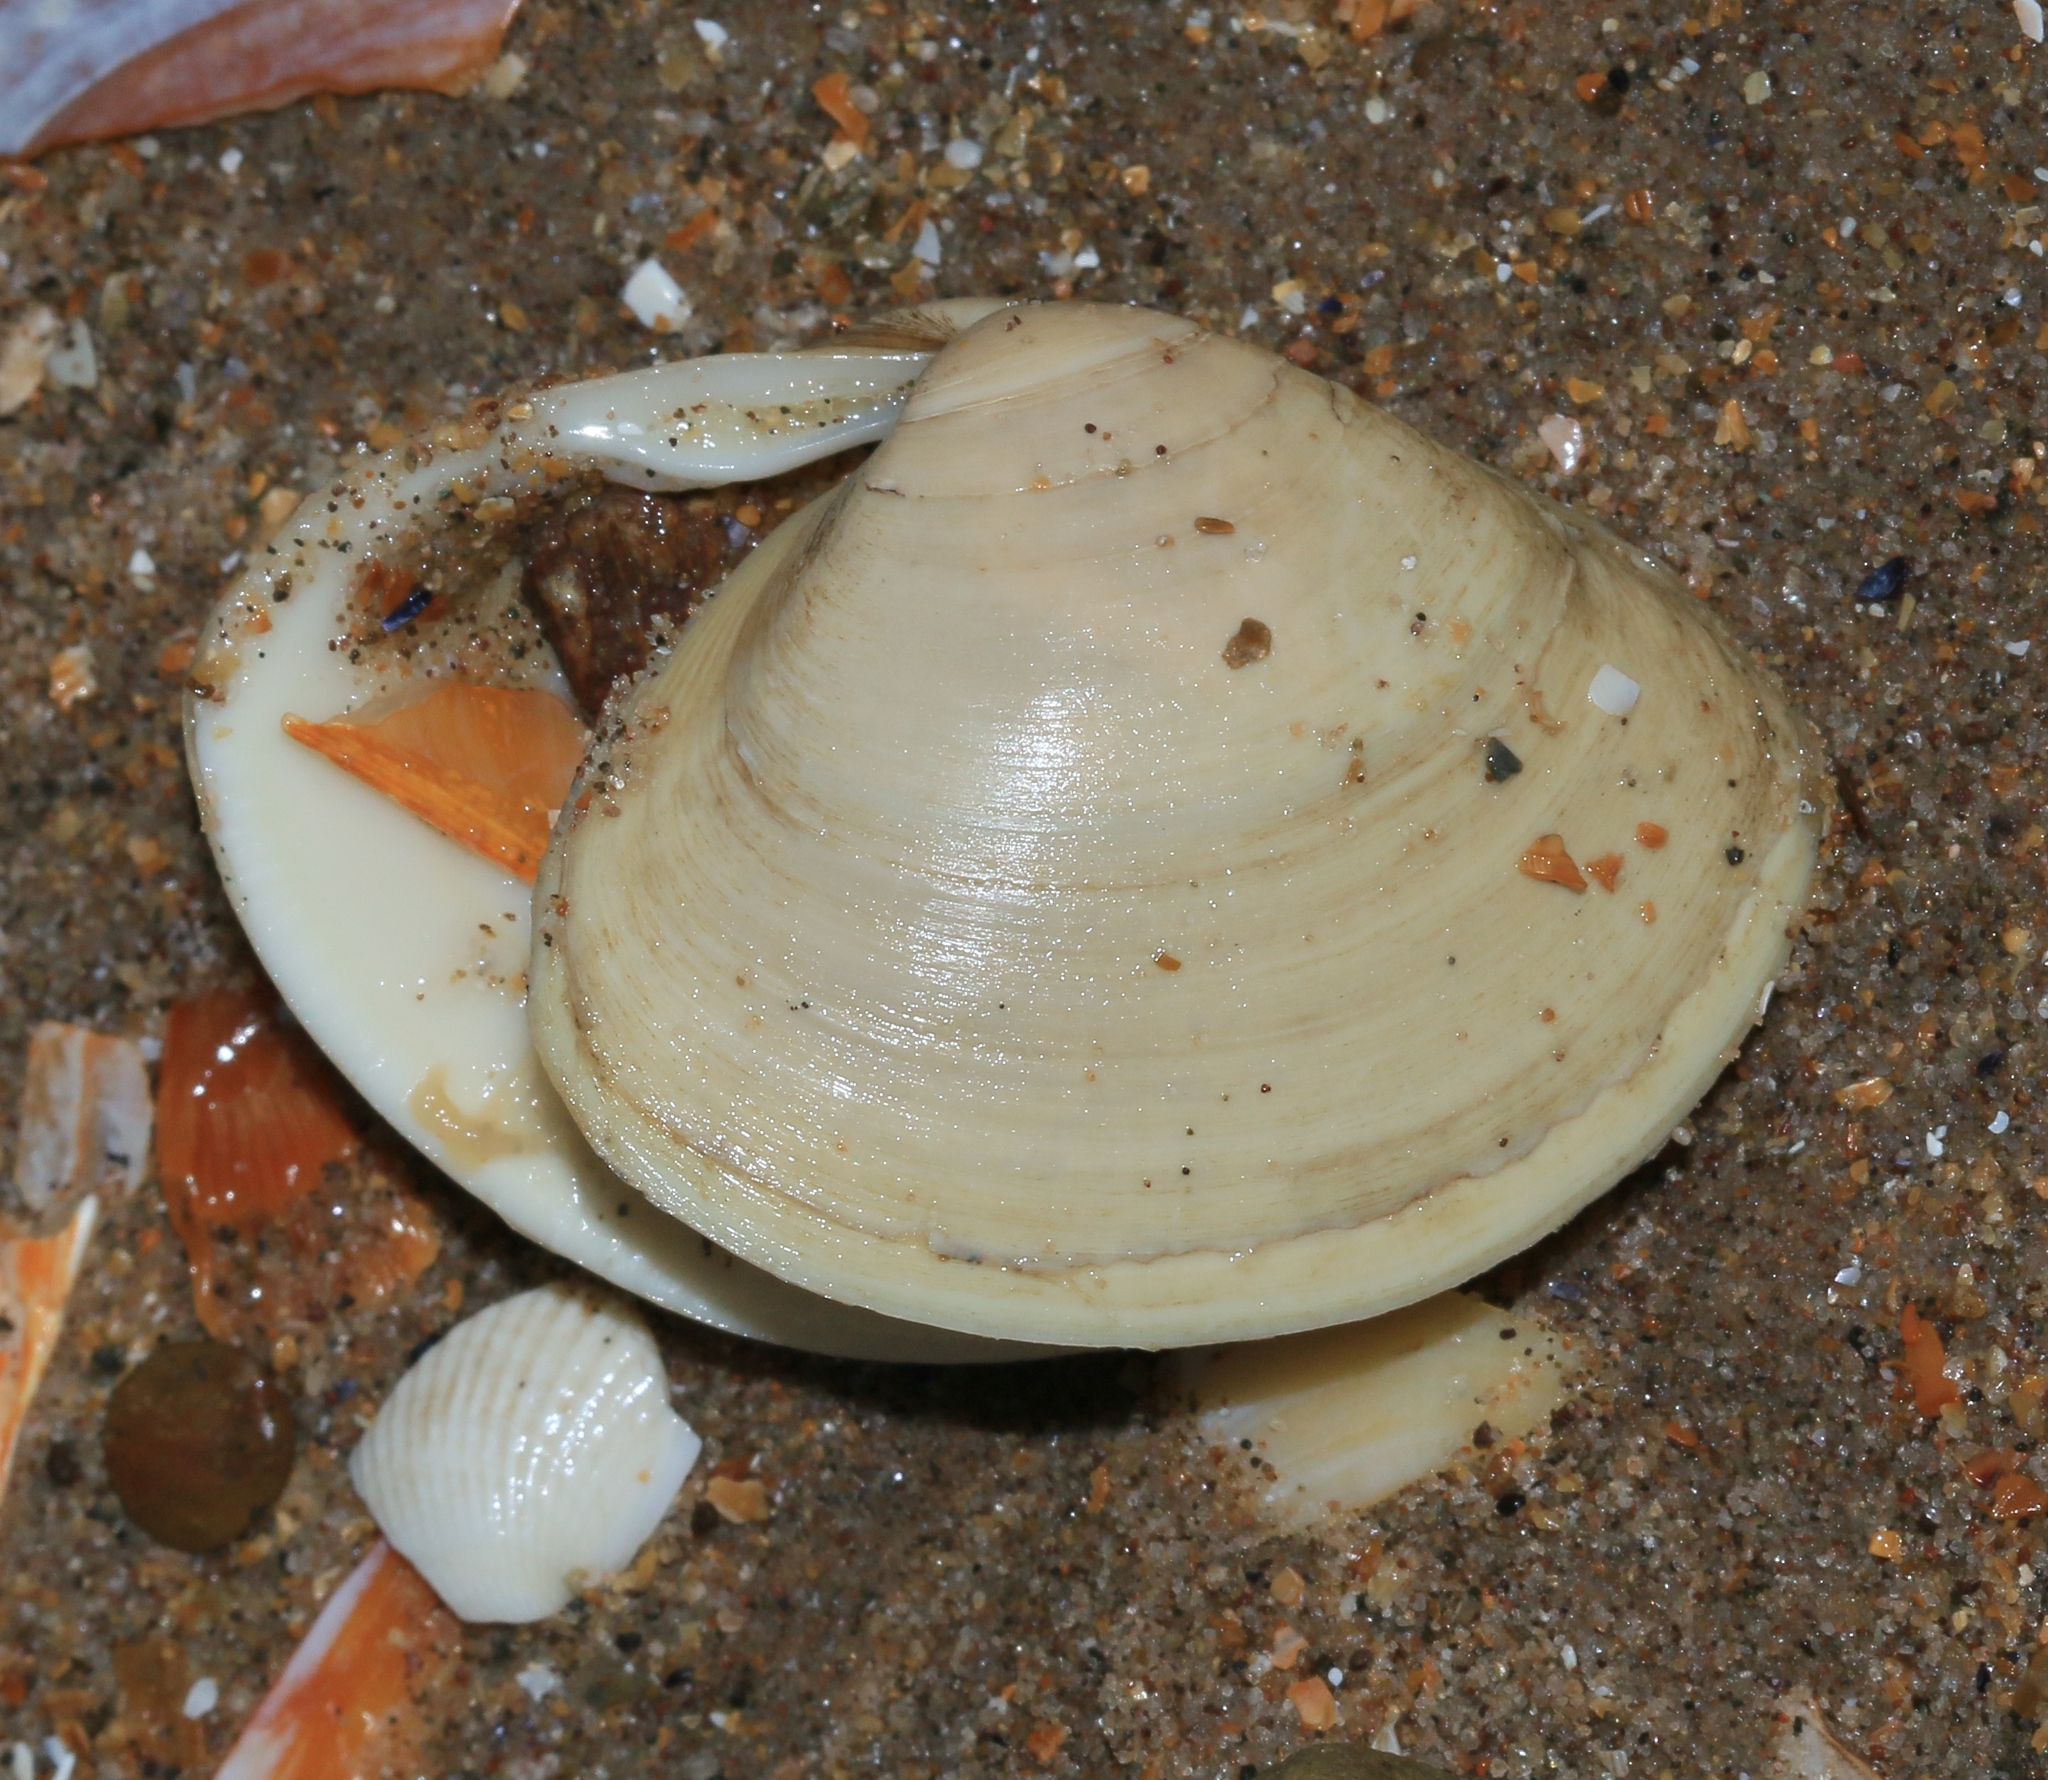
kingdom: Animalia
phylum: Mollusca
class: Bivalvia
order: Venerida
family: Mactridae
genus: Spisula
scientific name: Spisula solida
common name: Thick trough shell
